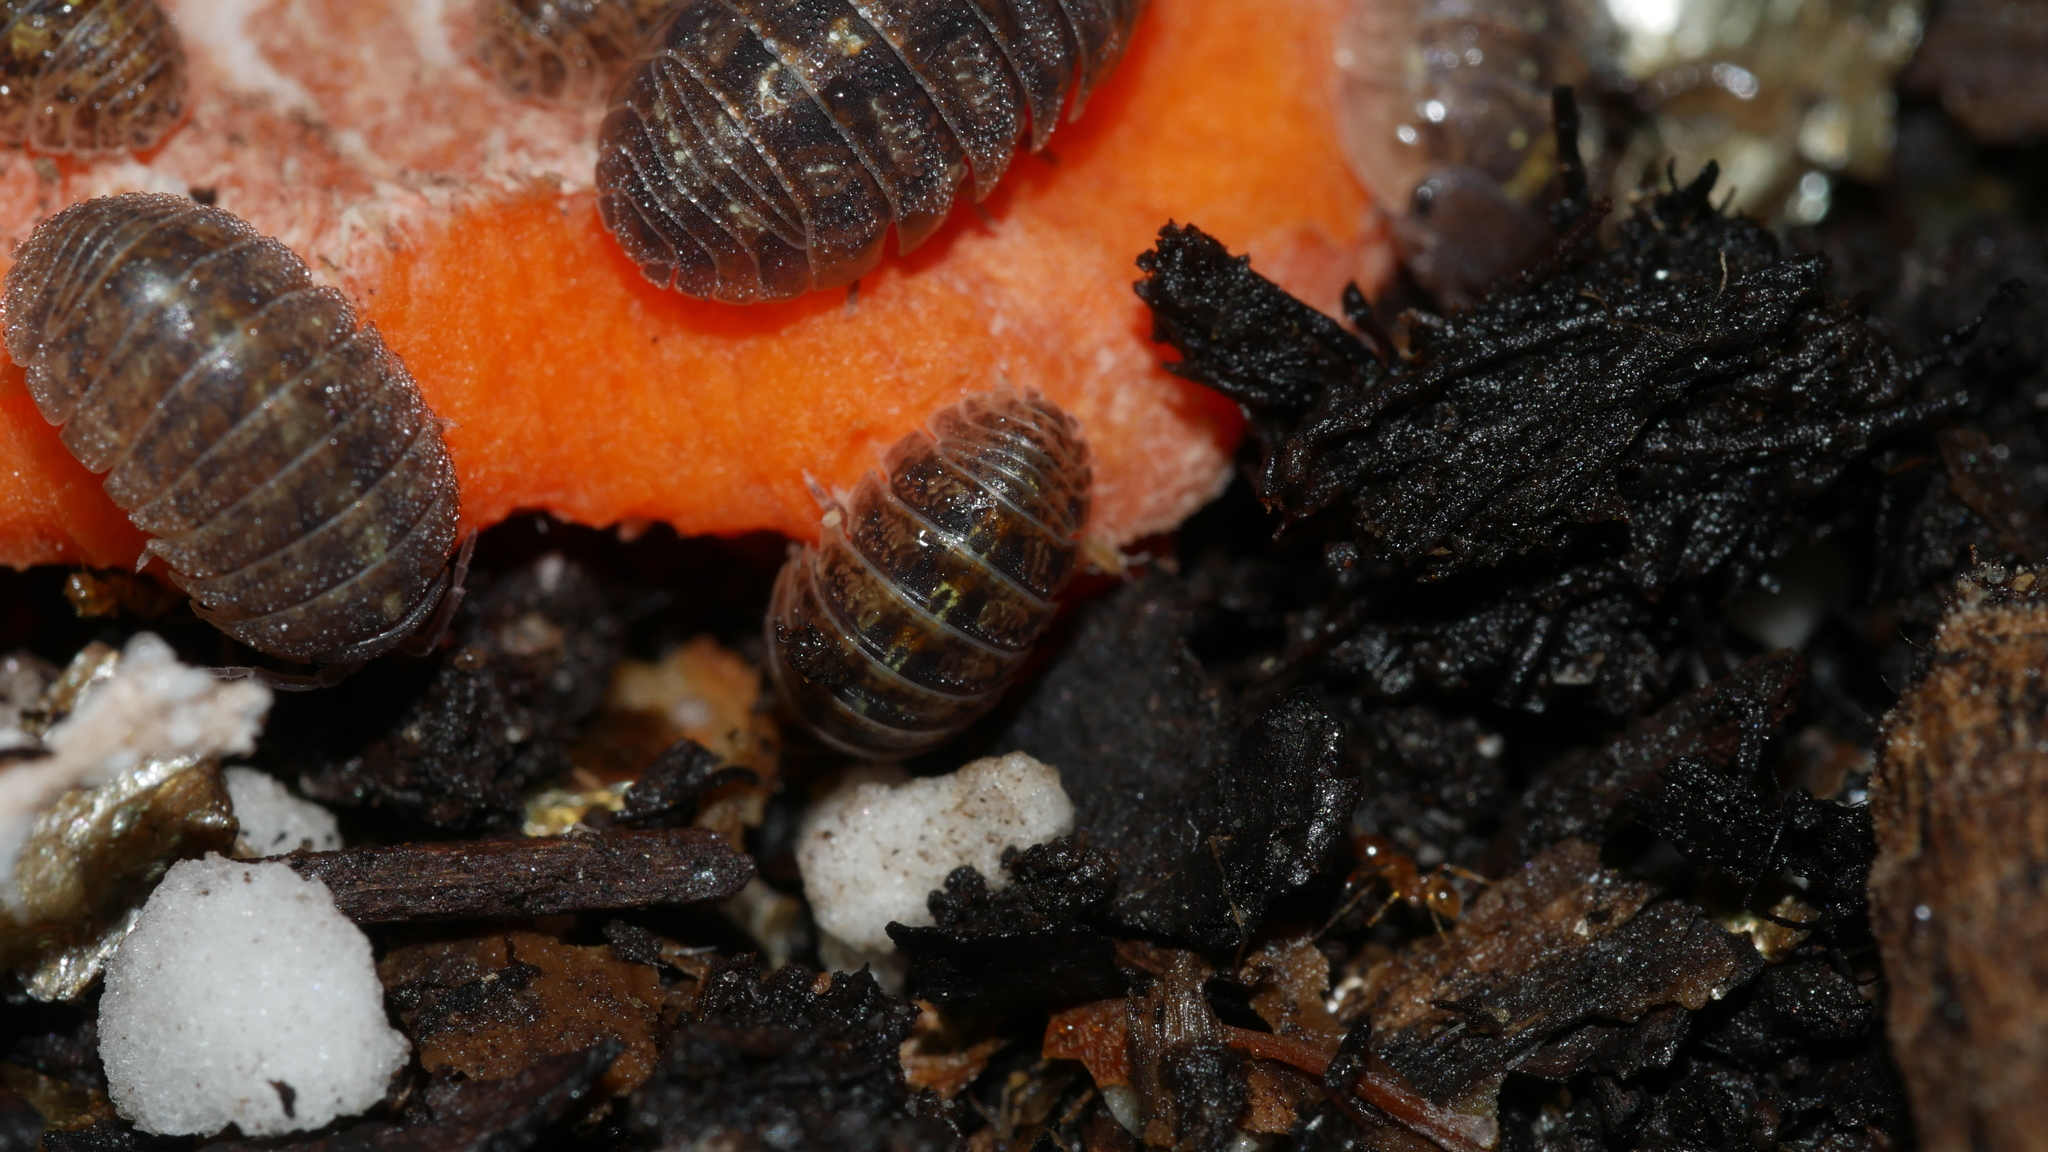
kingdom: Animalia
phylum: Arthropoda
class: Malacostraca
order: Isopoda
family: Armadillidiidae
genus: Armadillidium
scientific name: Armadillidium vulgare
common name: Common pill woodlouse
